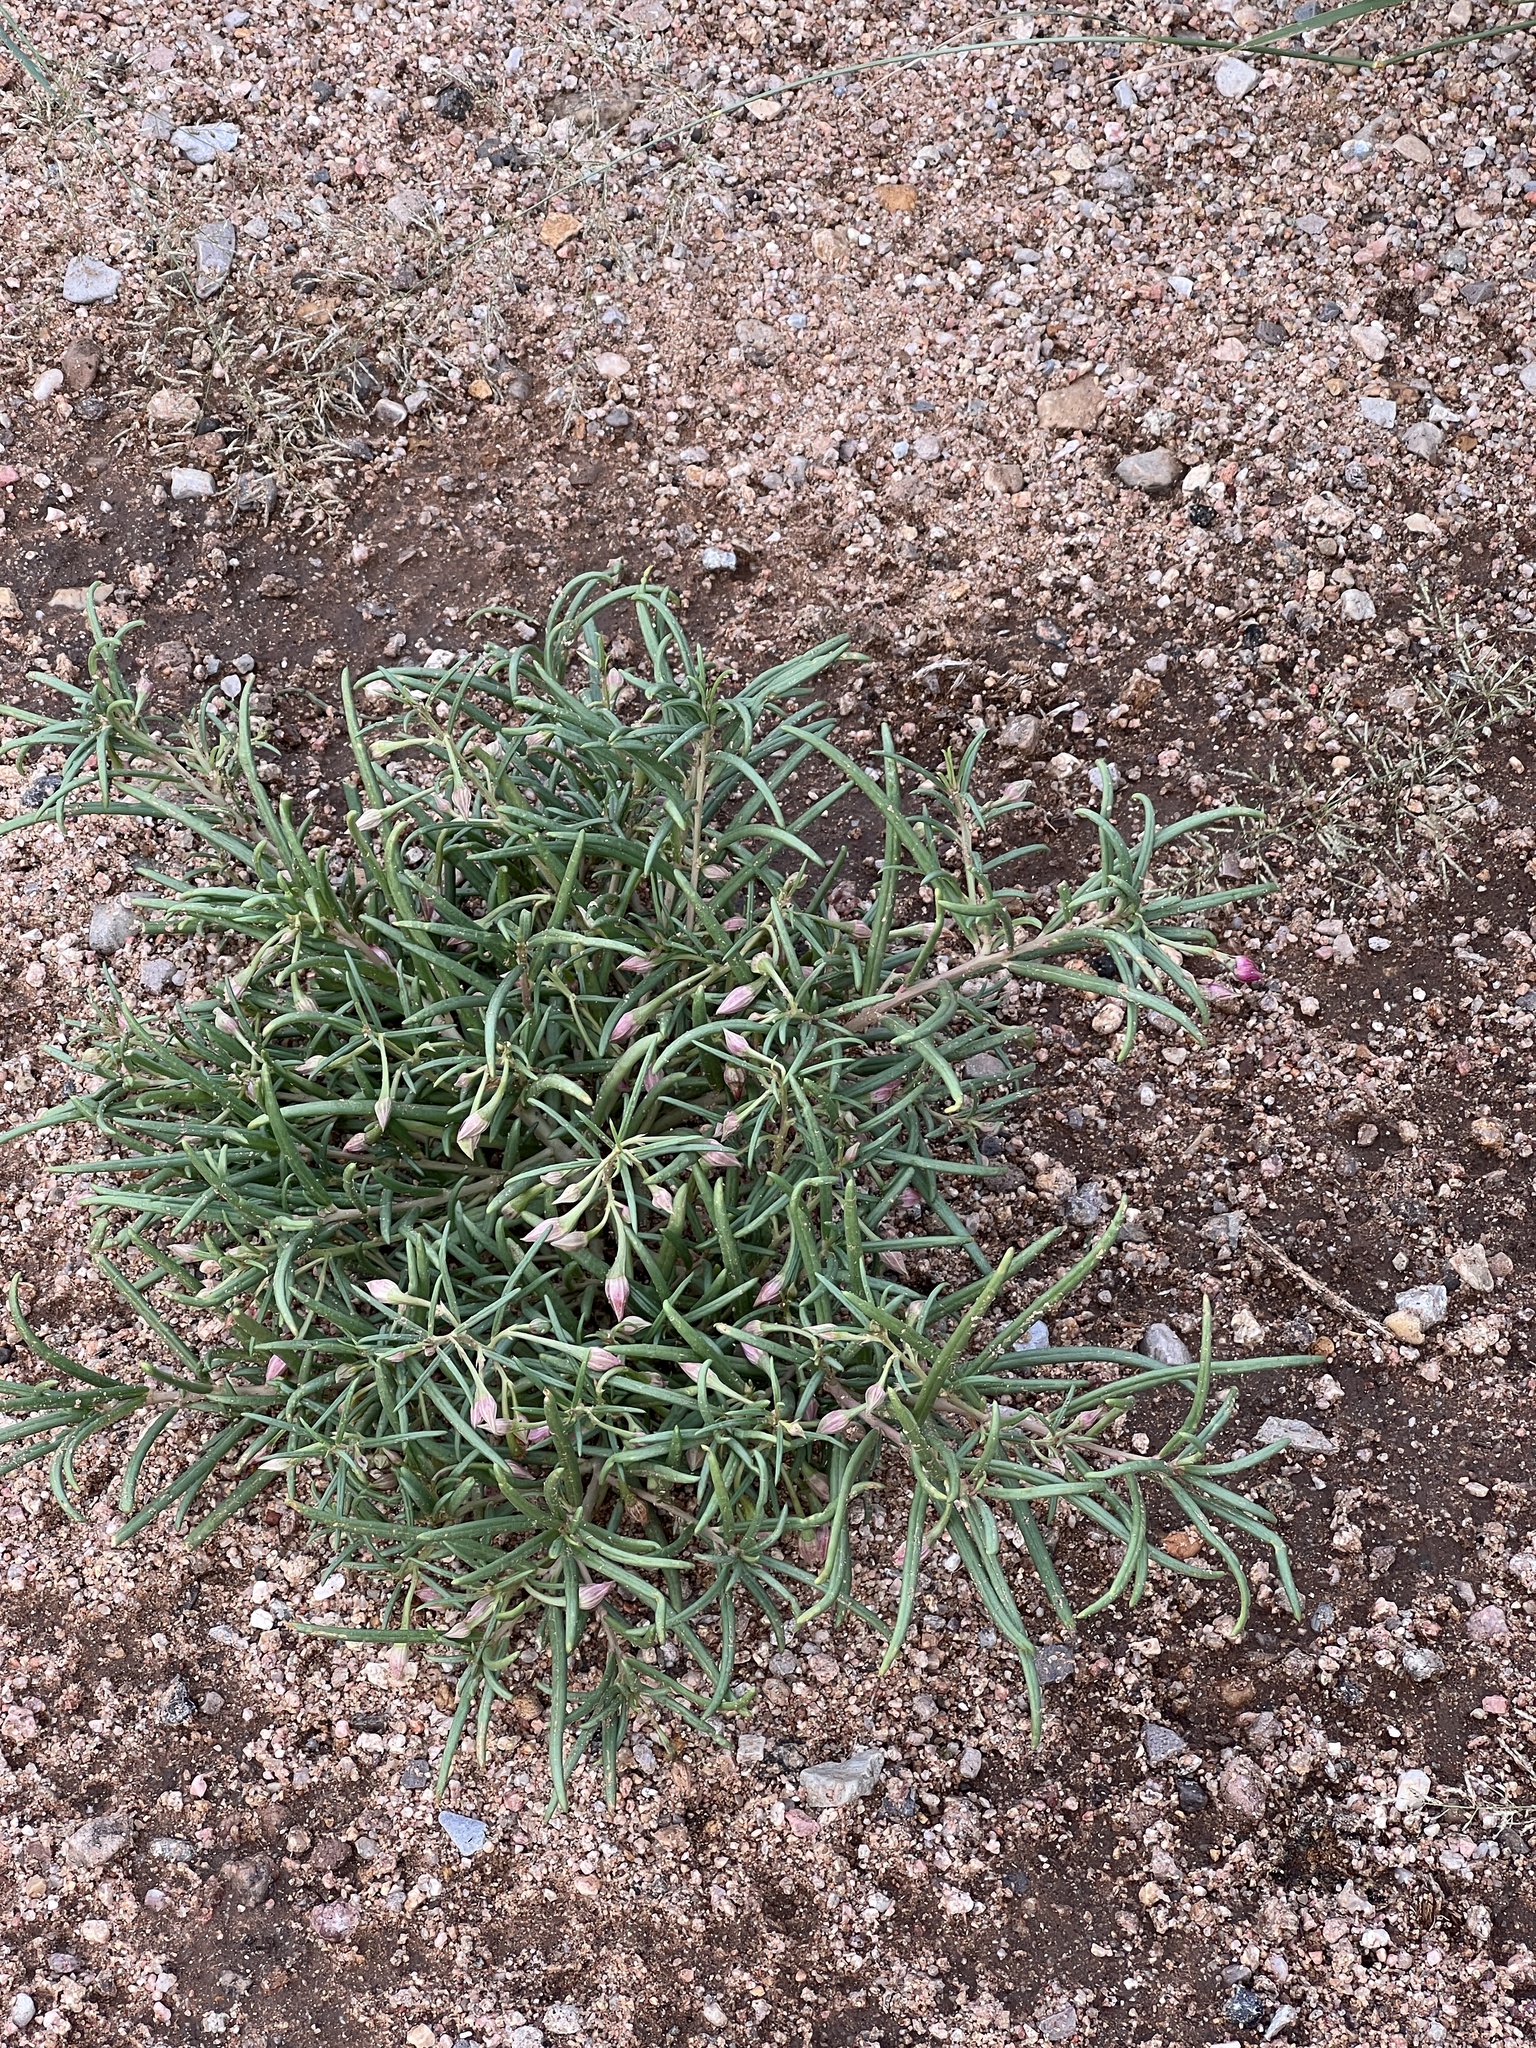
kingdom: Plantae
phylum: Tracheophyta
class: Magnoliopsida
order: Caryophyllales
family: Montiaceae
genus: Phemeranthus
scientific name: Phemeranthus aurantiacus
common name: Orange fameflower
